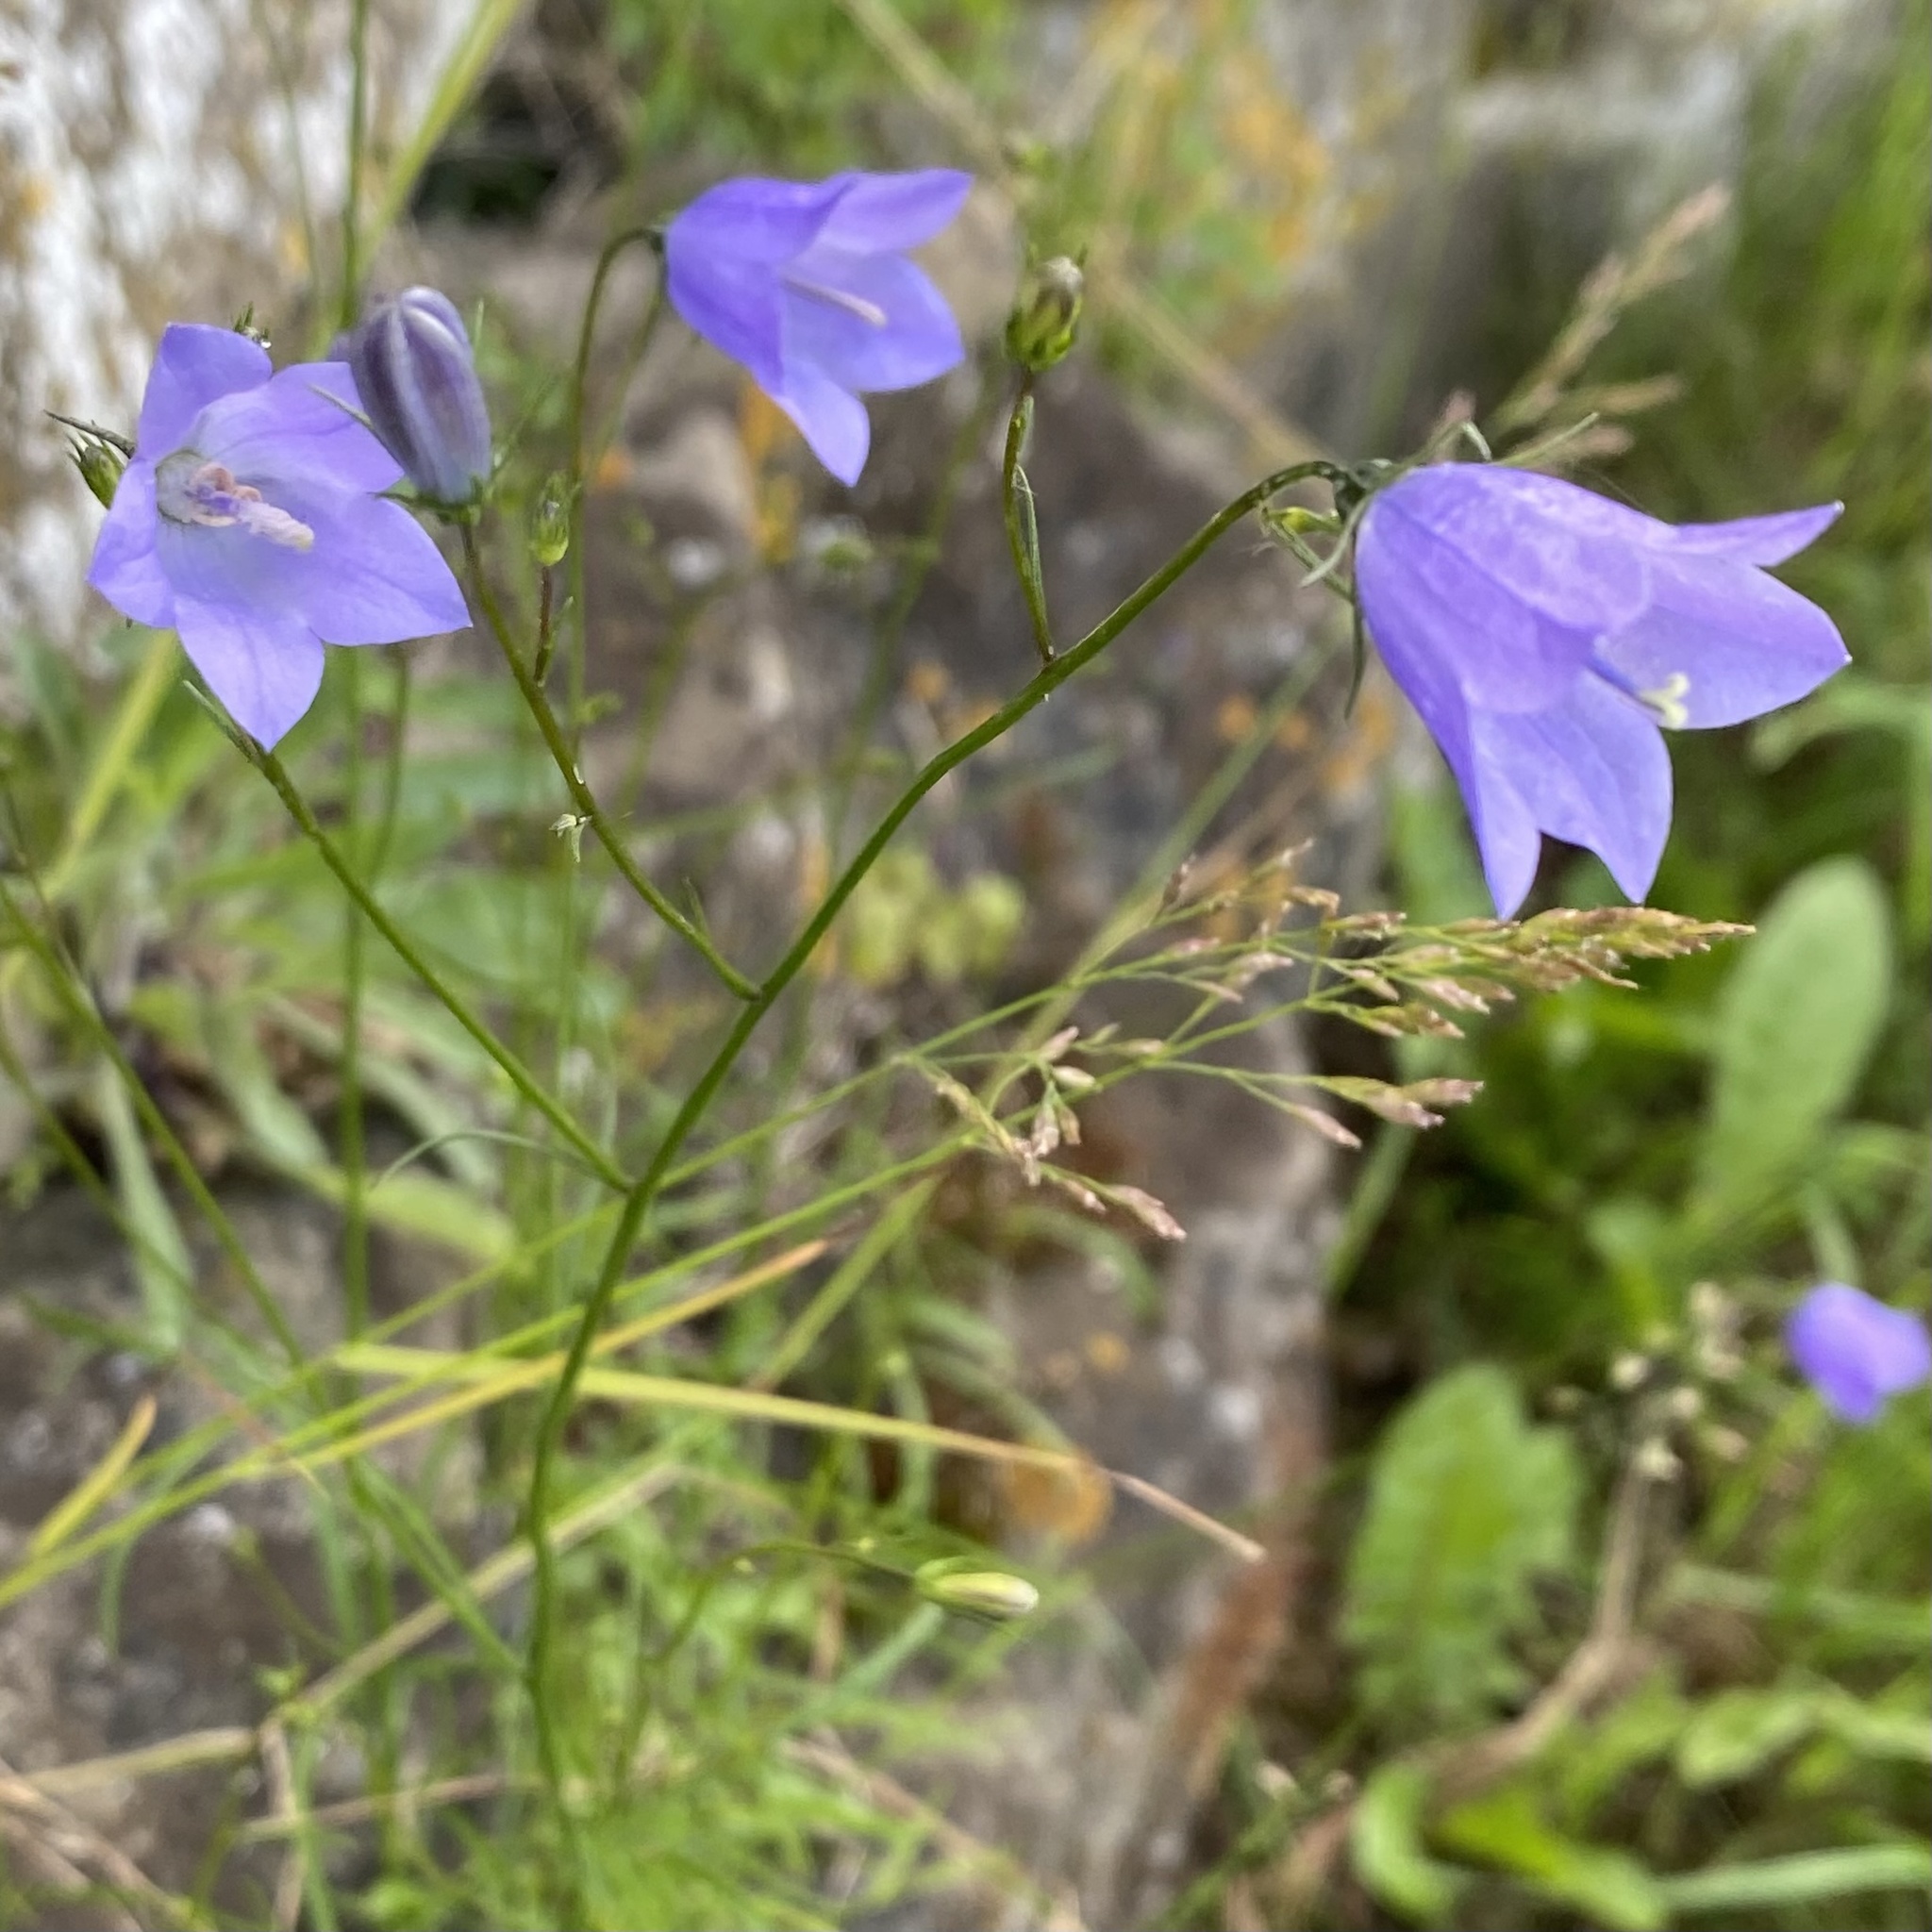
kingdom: Plantae
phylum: Tracheophyta
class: Magnoliopsida
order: Asterales
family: Campanulaceae
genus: Campanula
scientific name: Campanula rotundifolia
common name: Harebell
